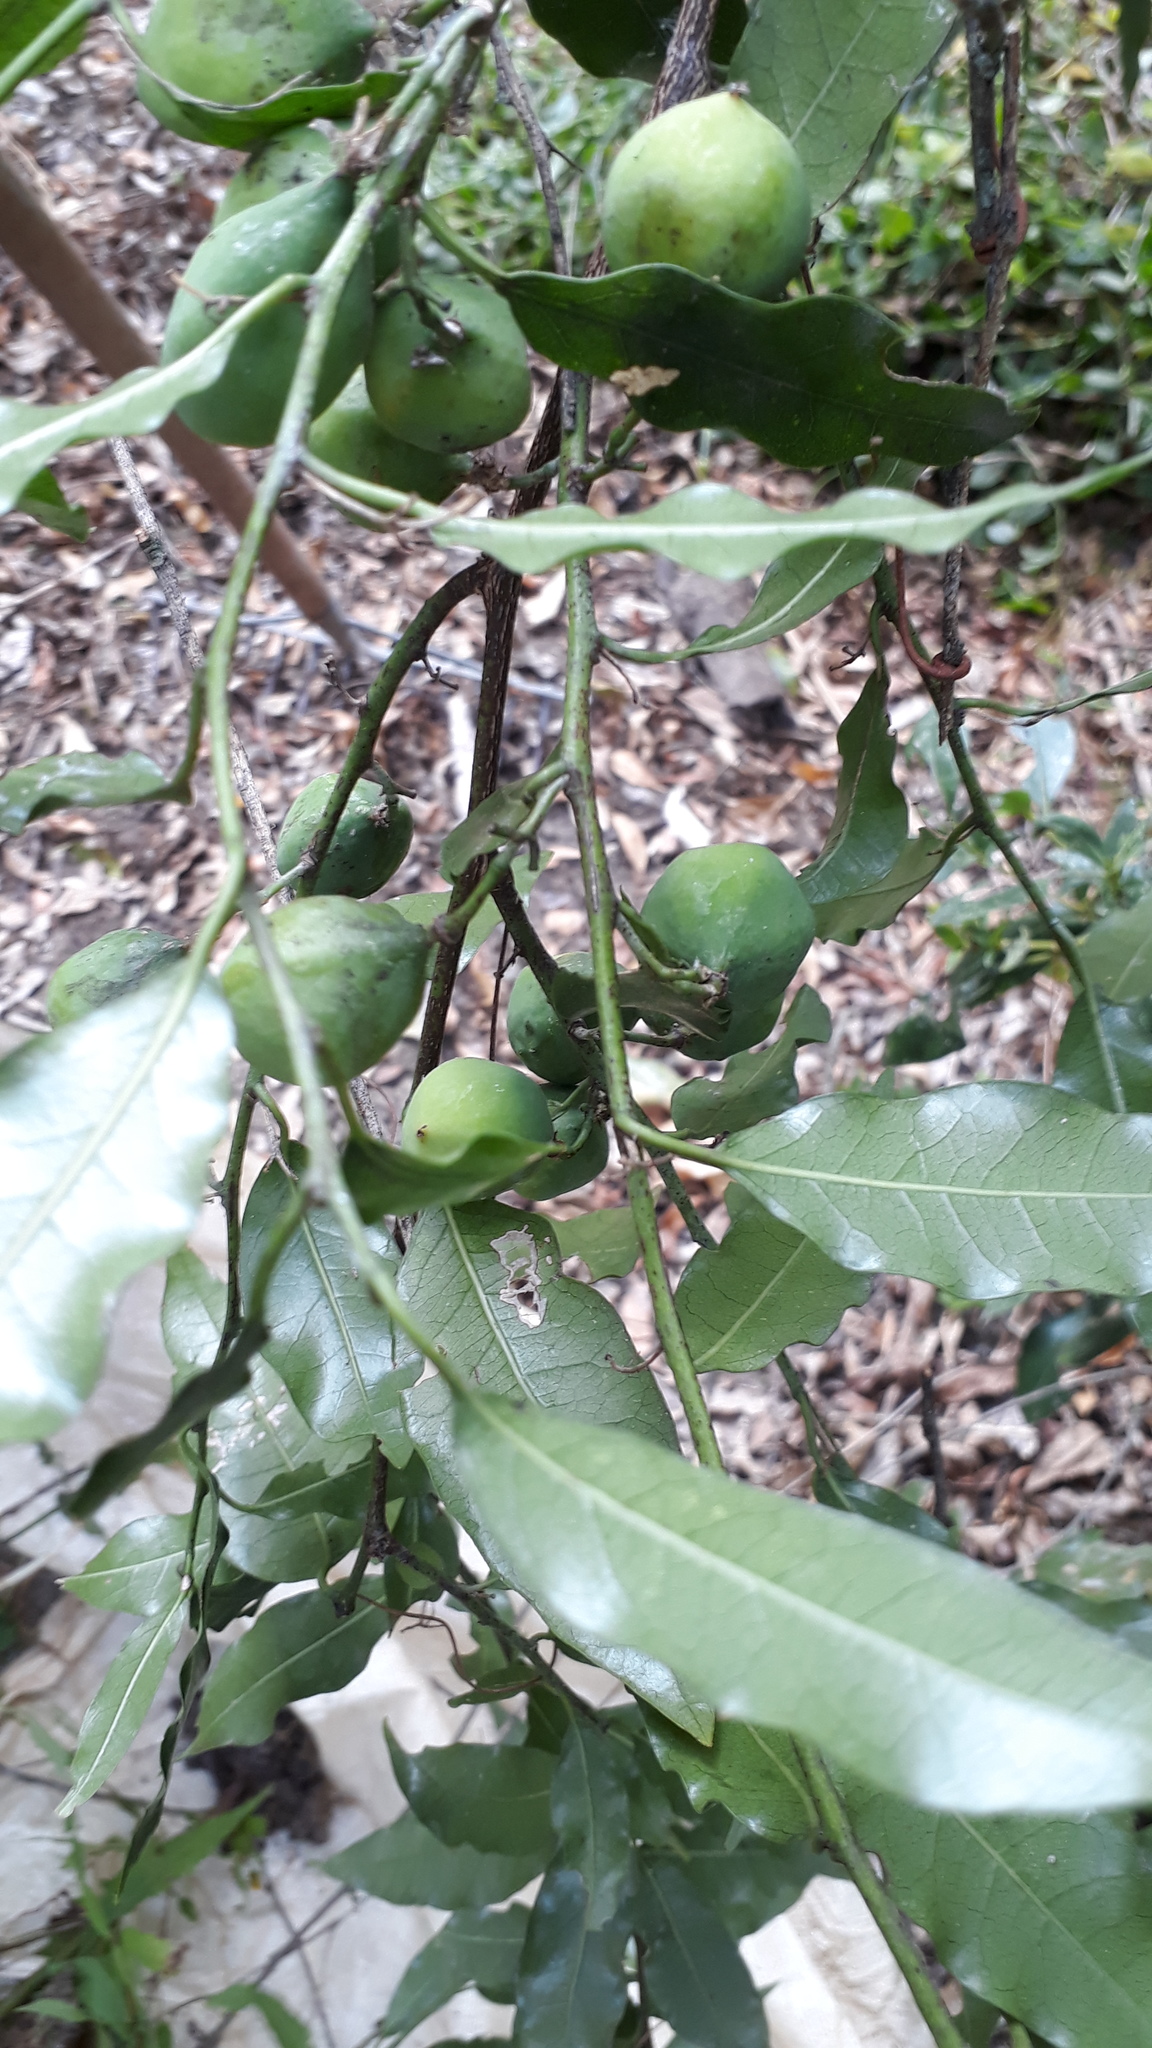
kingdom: Plantae
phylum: Tracheophyta
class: Magnoliopsida
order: Malpighiales
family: Passifloraceae
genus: Passiflora
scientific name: Passiflora tetrandra
